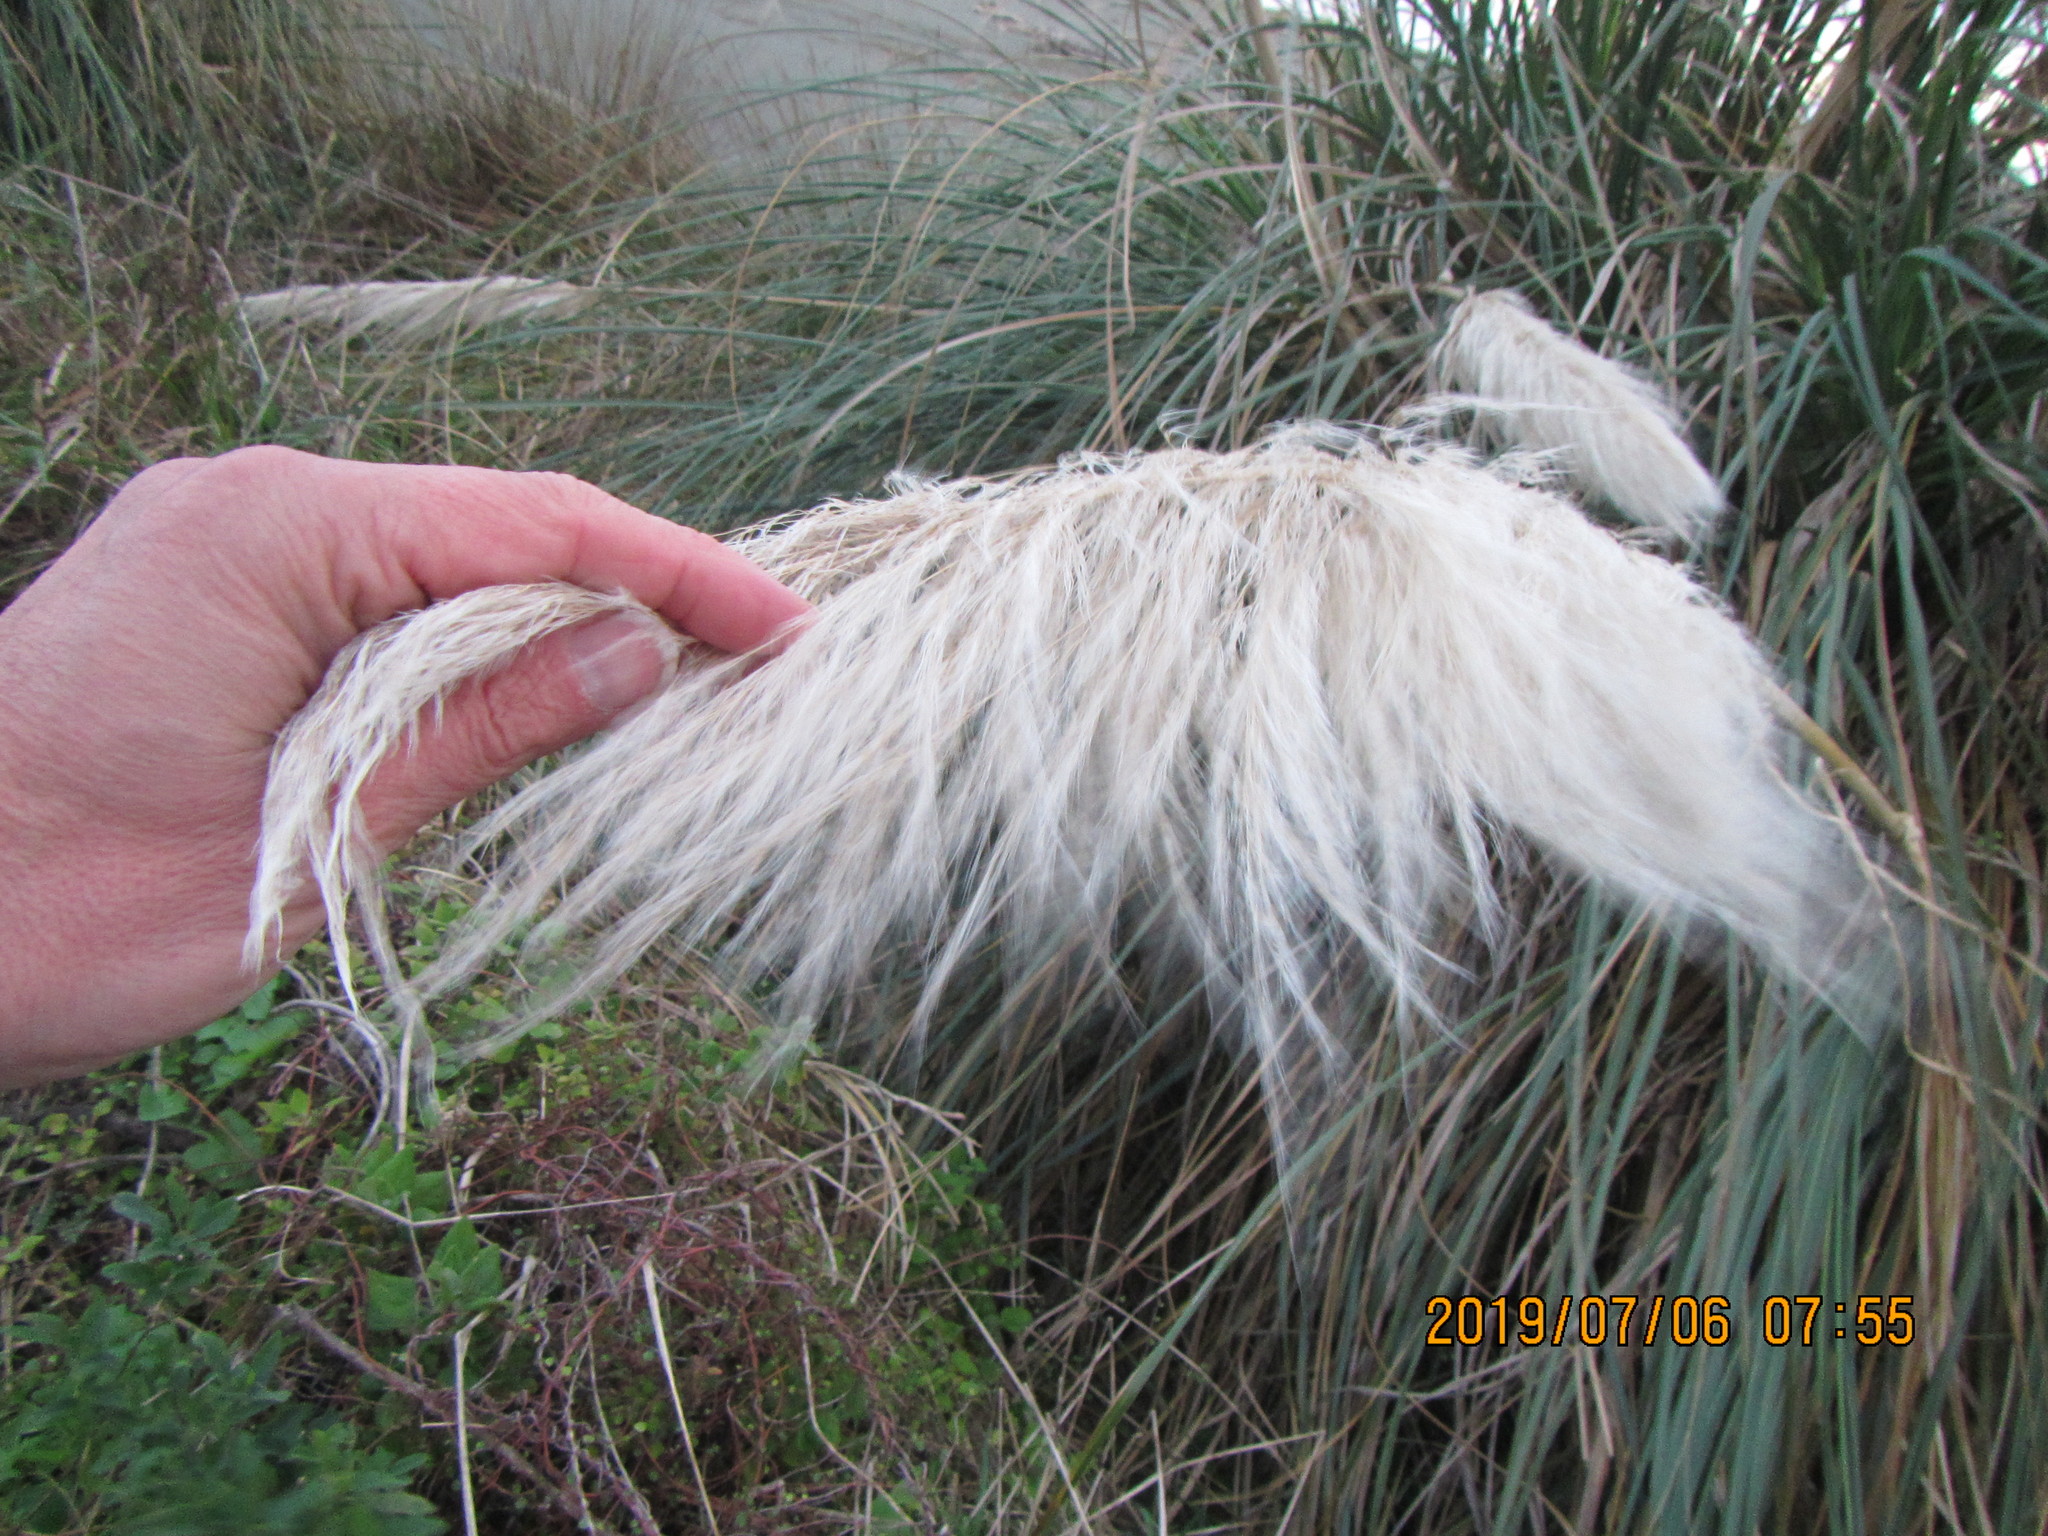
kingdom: Plantae
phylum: Tracheophyta
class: Liliopsida
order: Poales
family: Poaceae
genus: Cortaderia
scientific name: Cortaderia selloana
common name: Uruguayan pampas grass
